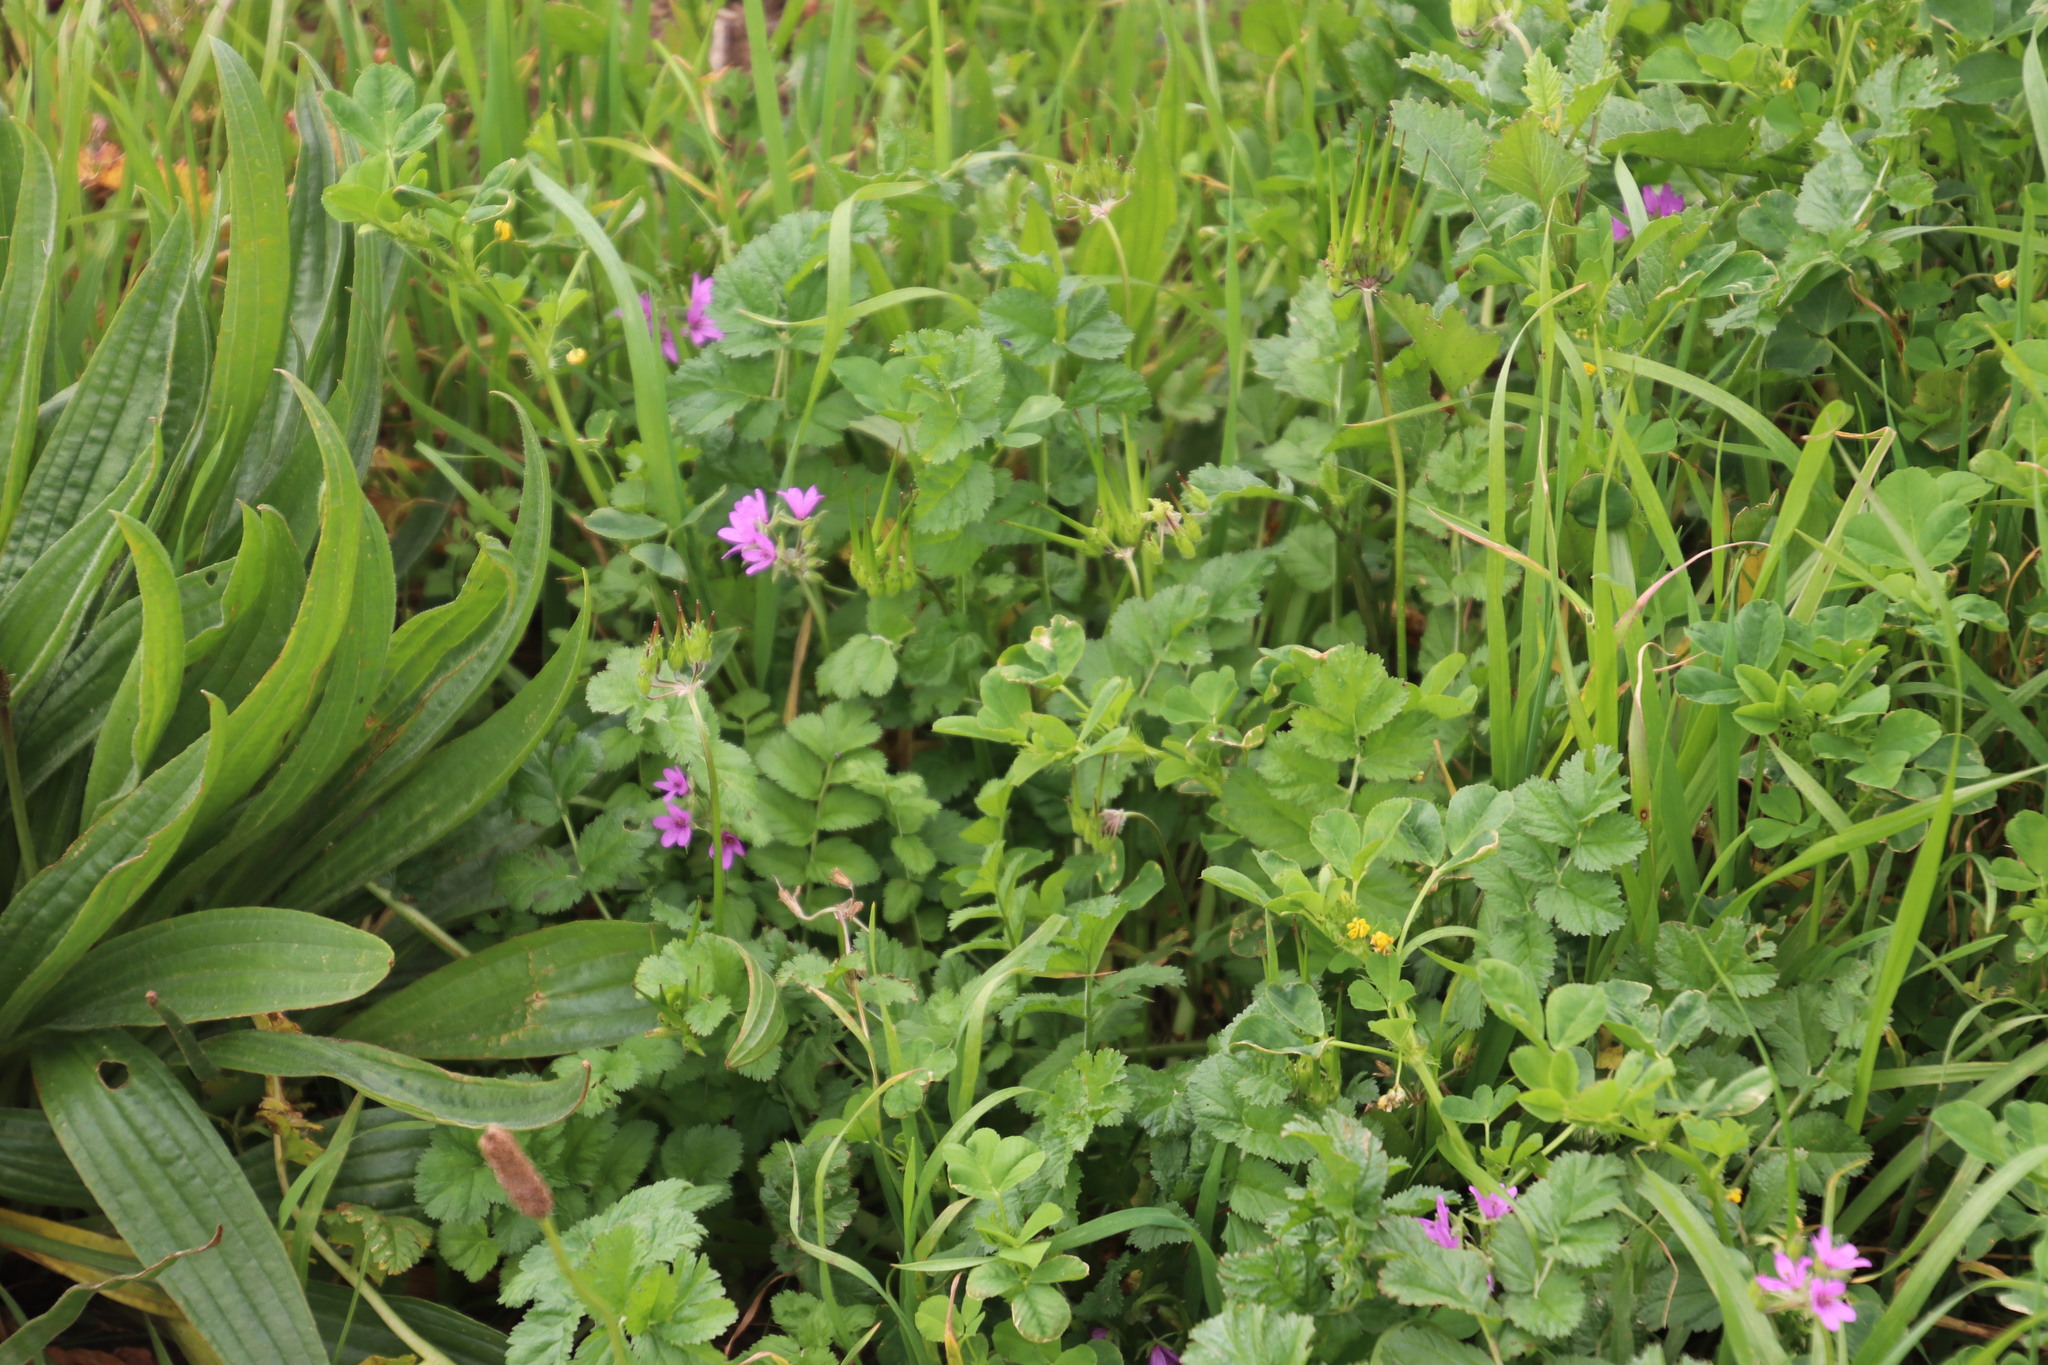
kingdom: Plantae
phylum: Tracheophyta
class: Magnoliopsida
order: Geraniales
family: Geraniaceae
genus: Erodium
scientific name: Erodium moschatum
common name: Musk stork's-bill
